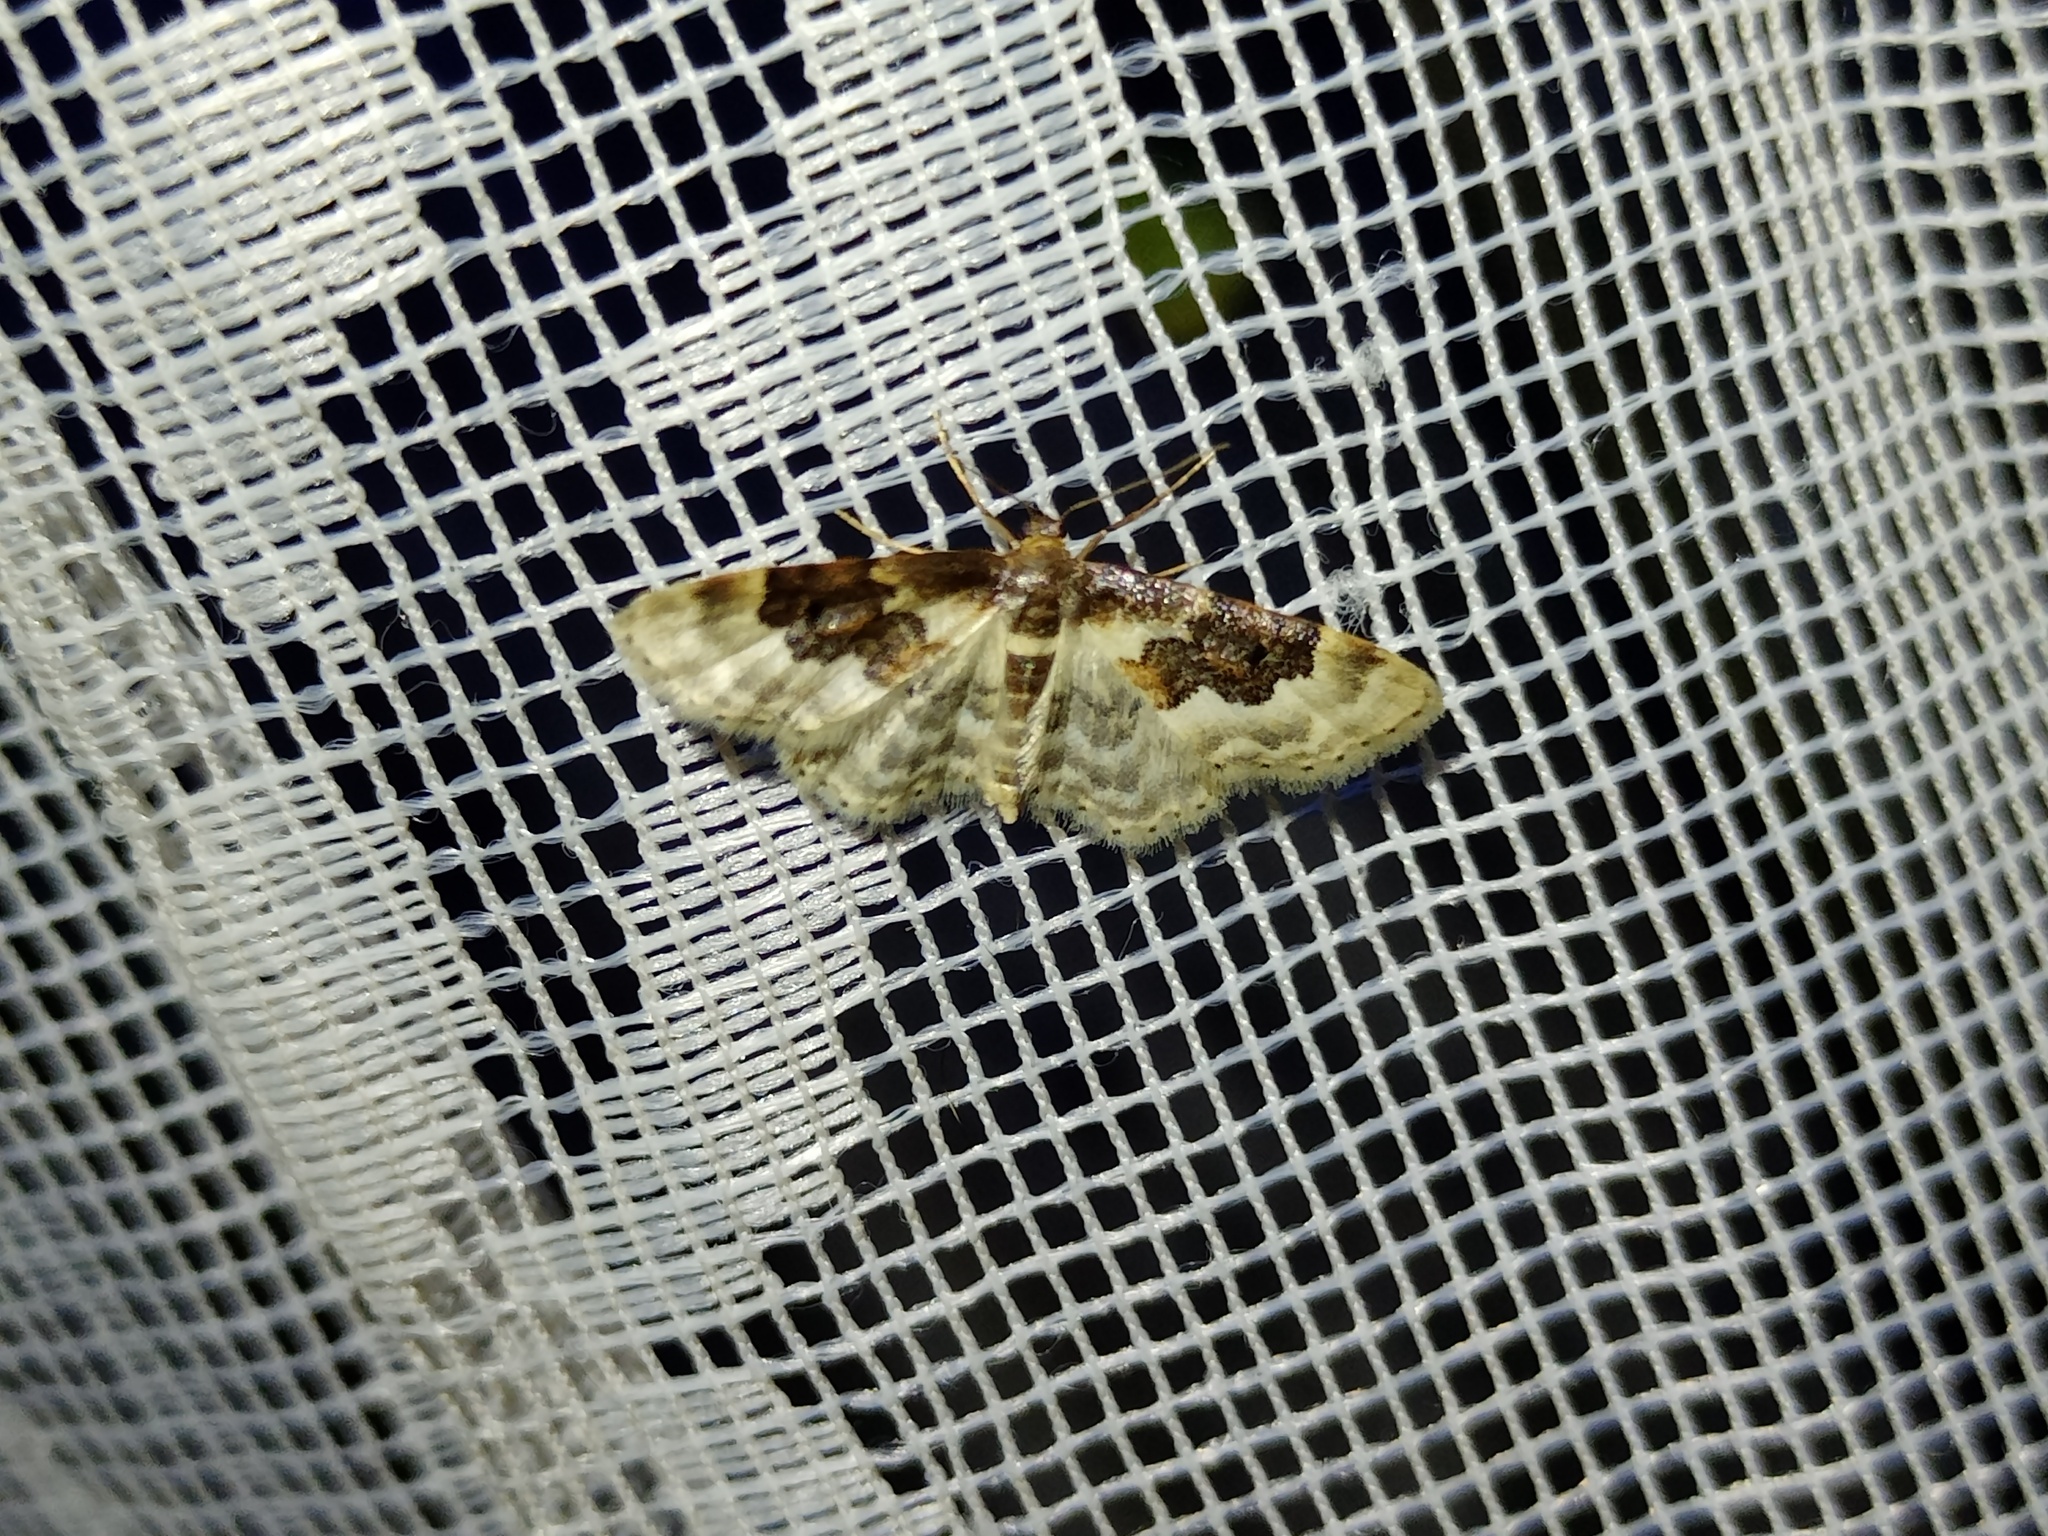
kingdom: Animalia
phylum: Arthropoda
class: Insecta
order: Lepidoptera
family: Geometridae
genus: Idaea
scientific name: Idaea rusticata
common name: Least carpet
